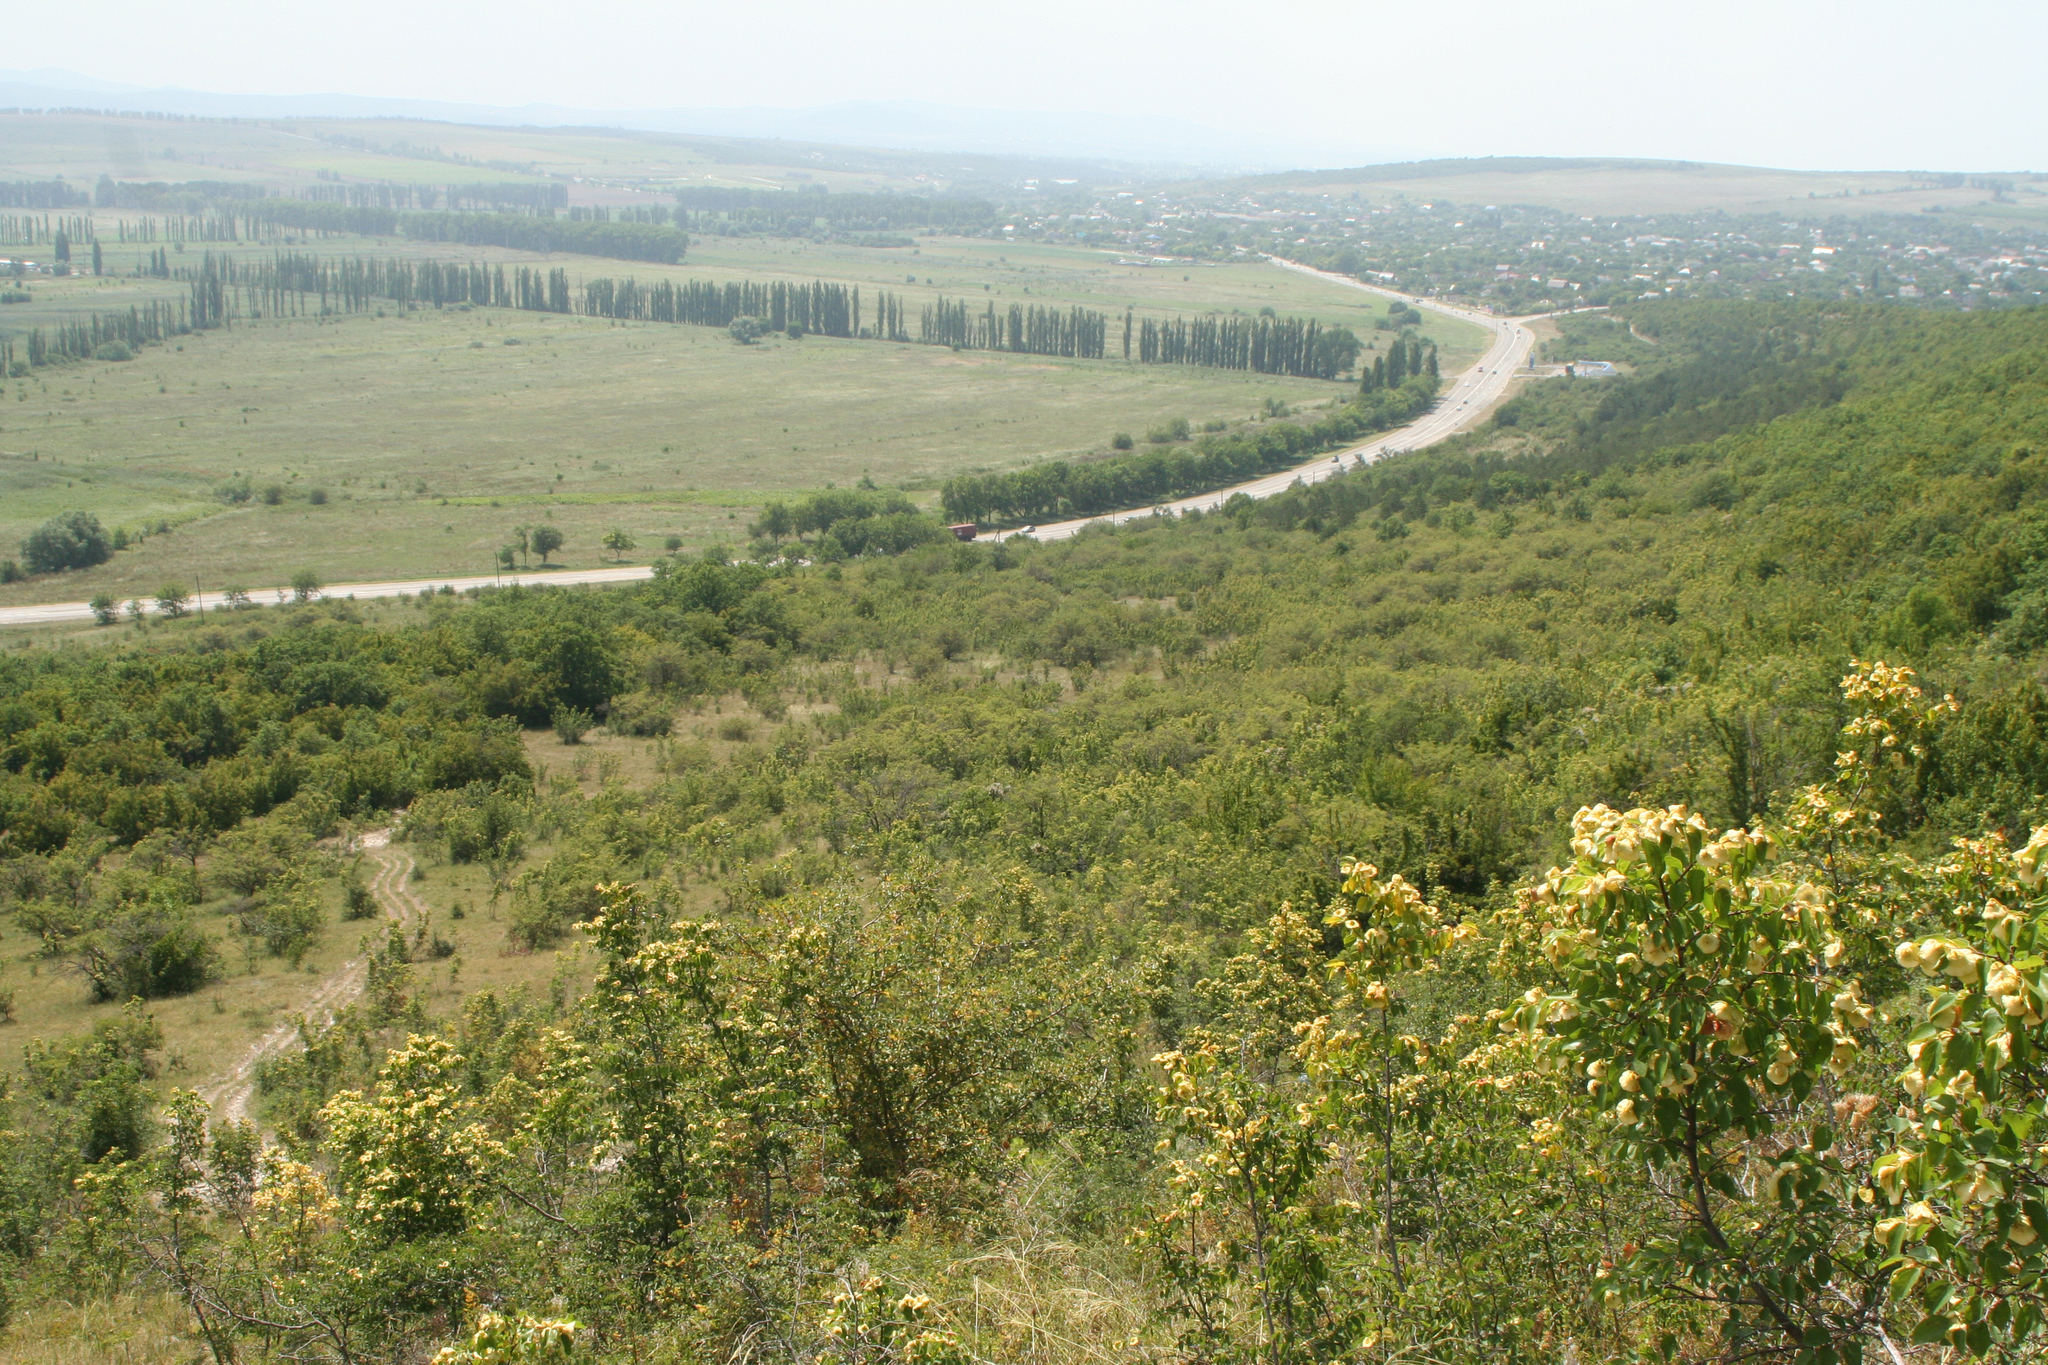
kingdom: Plantae
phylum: Tracheophyta
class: Magnoliopsida
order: Rosales
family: Rhamnaceae
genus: Paliurus
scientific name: Paliurus spina-christi
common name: Jeruselem thorn
